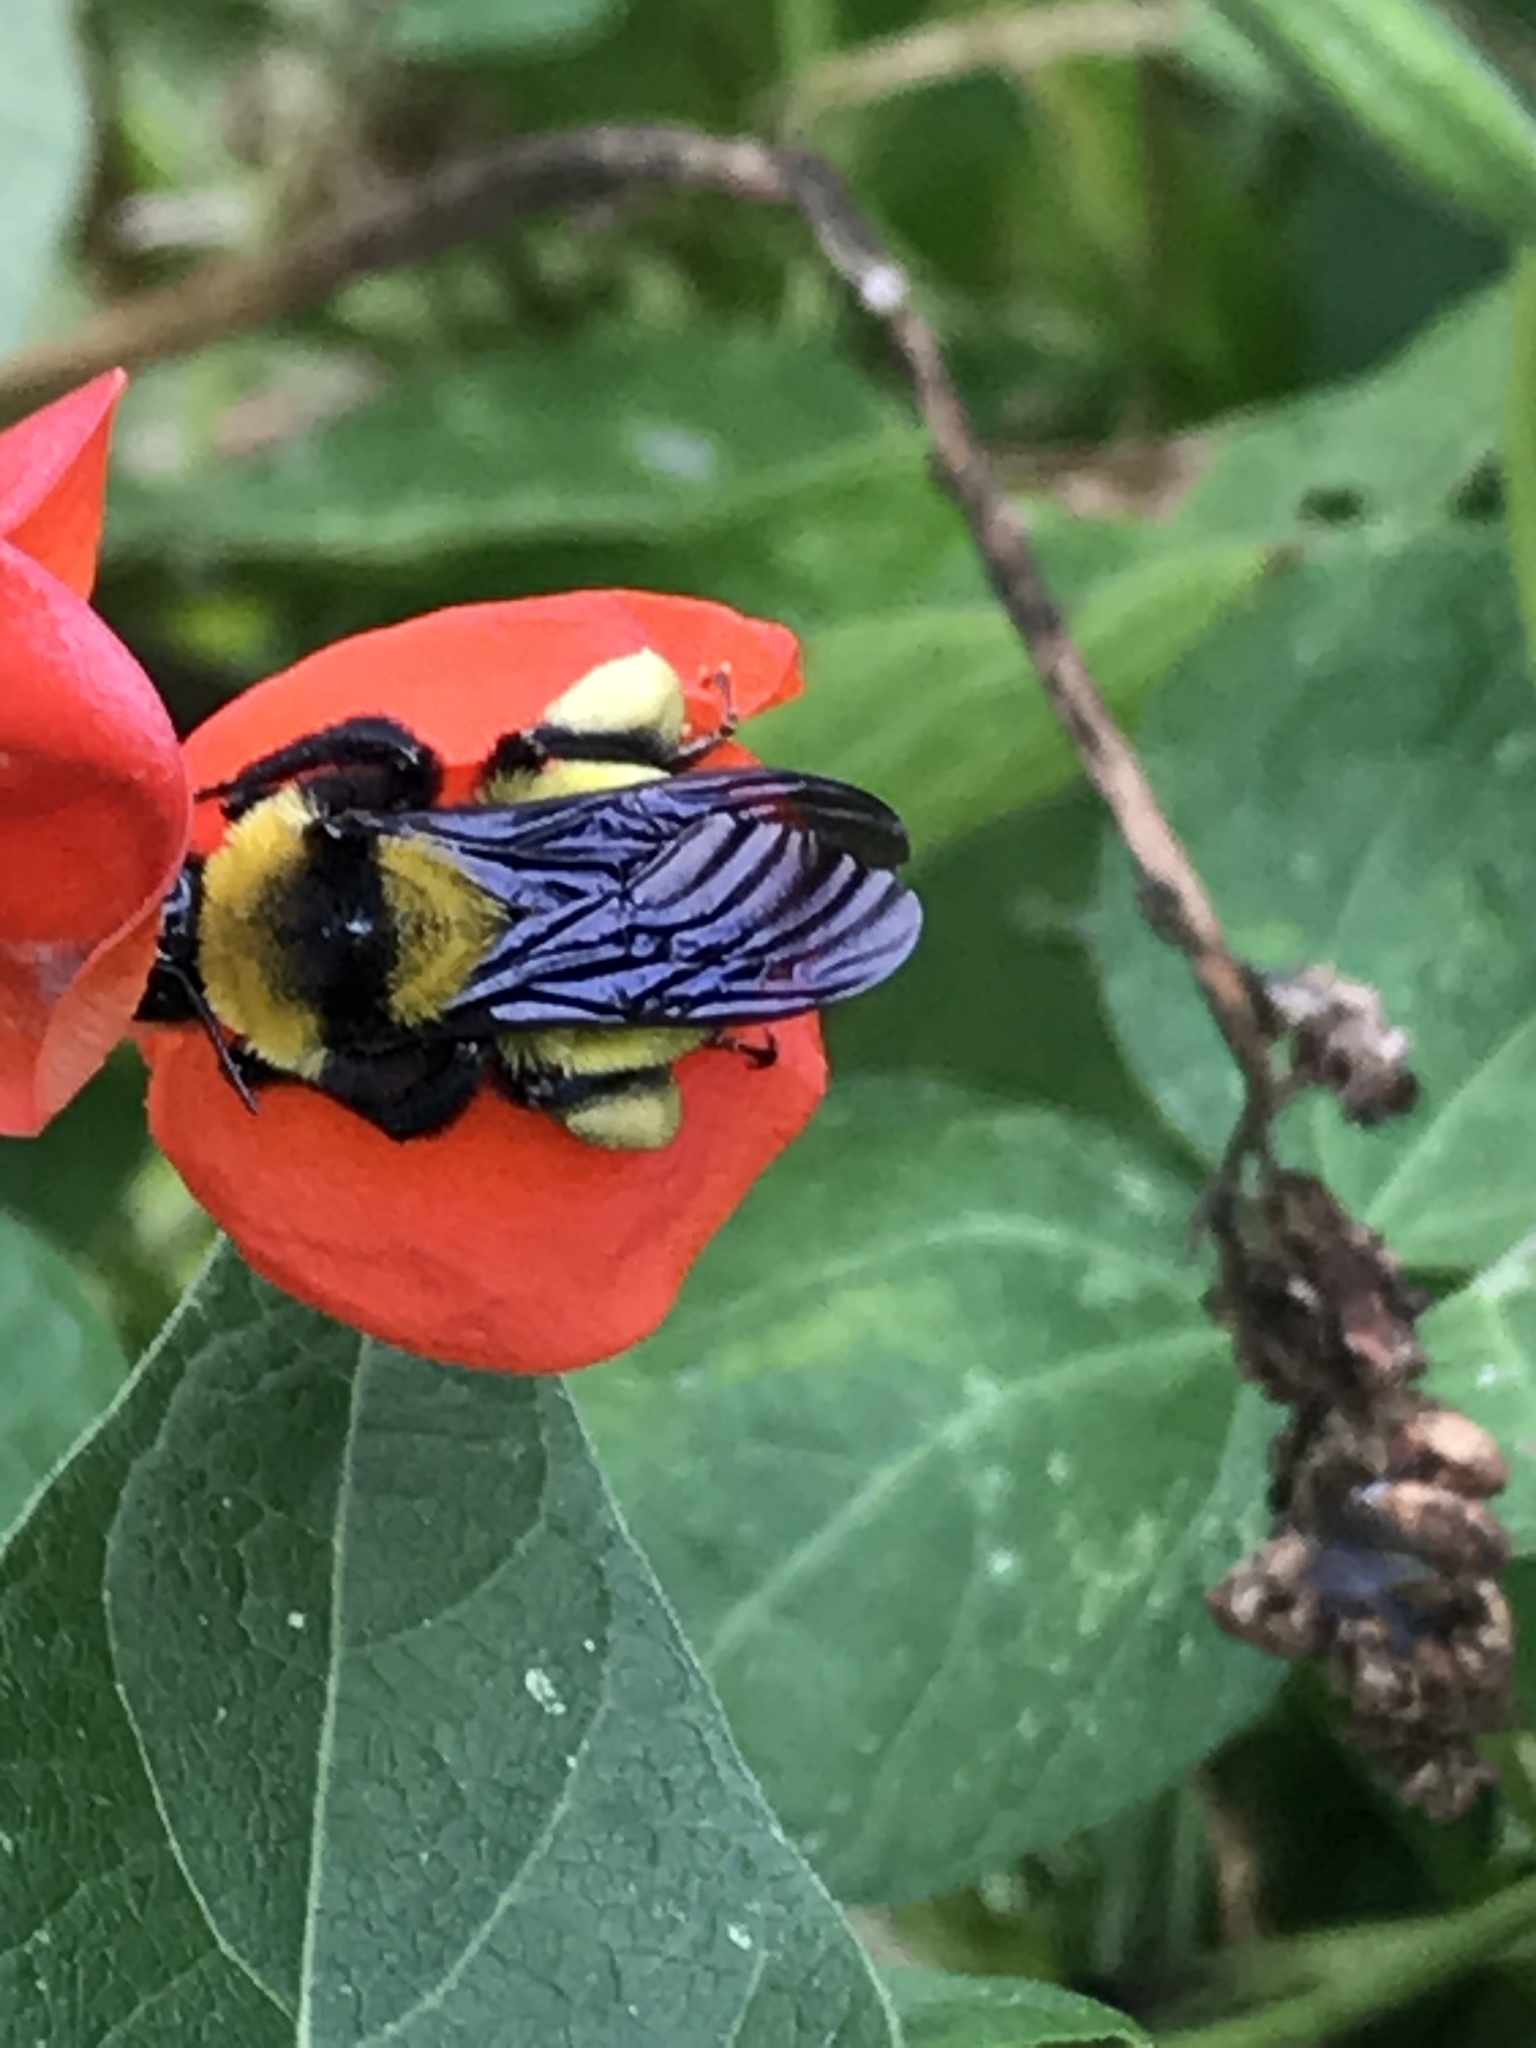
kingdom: Animalia
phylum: Arthropoda
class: Insecta
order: Hymenoptera
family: Apidae
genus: Bombus
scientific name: Bombus sonorus
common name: Sonoran bumble bee
